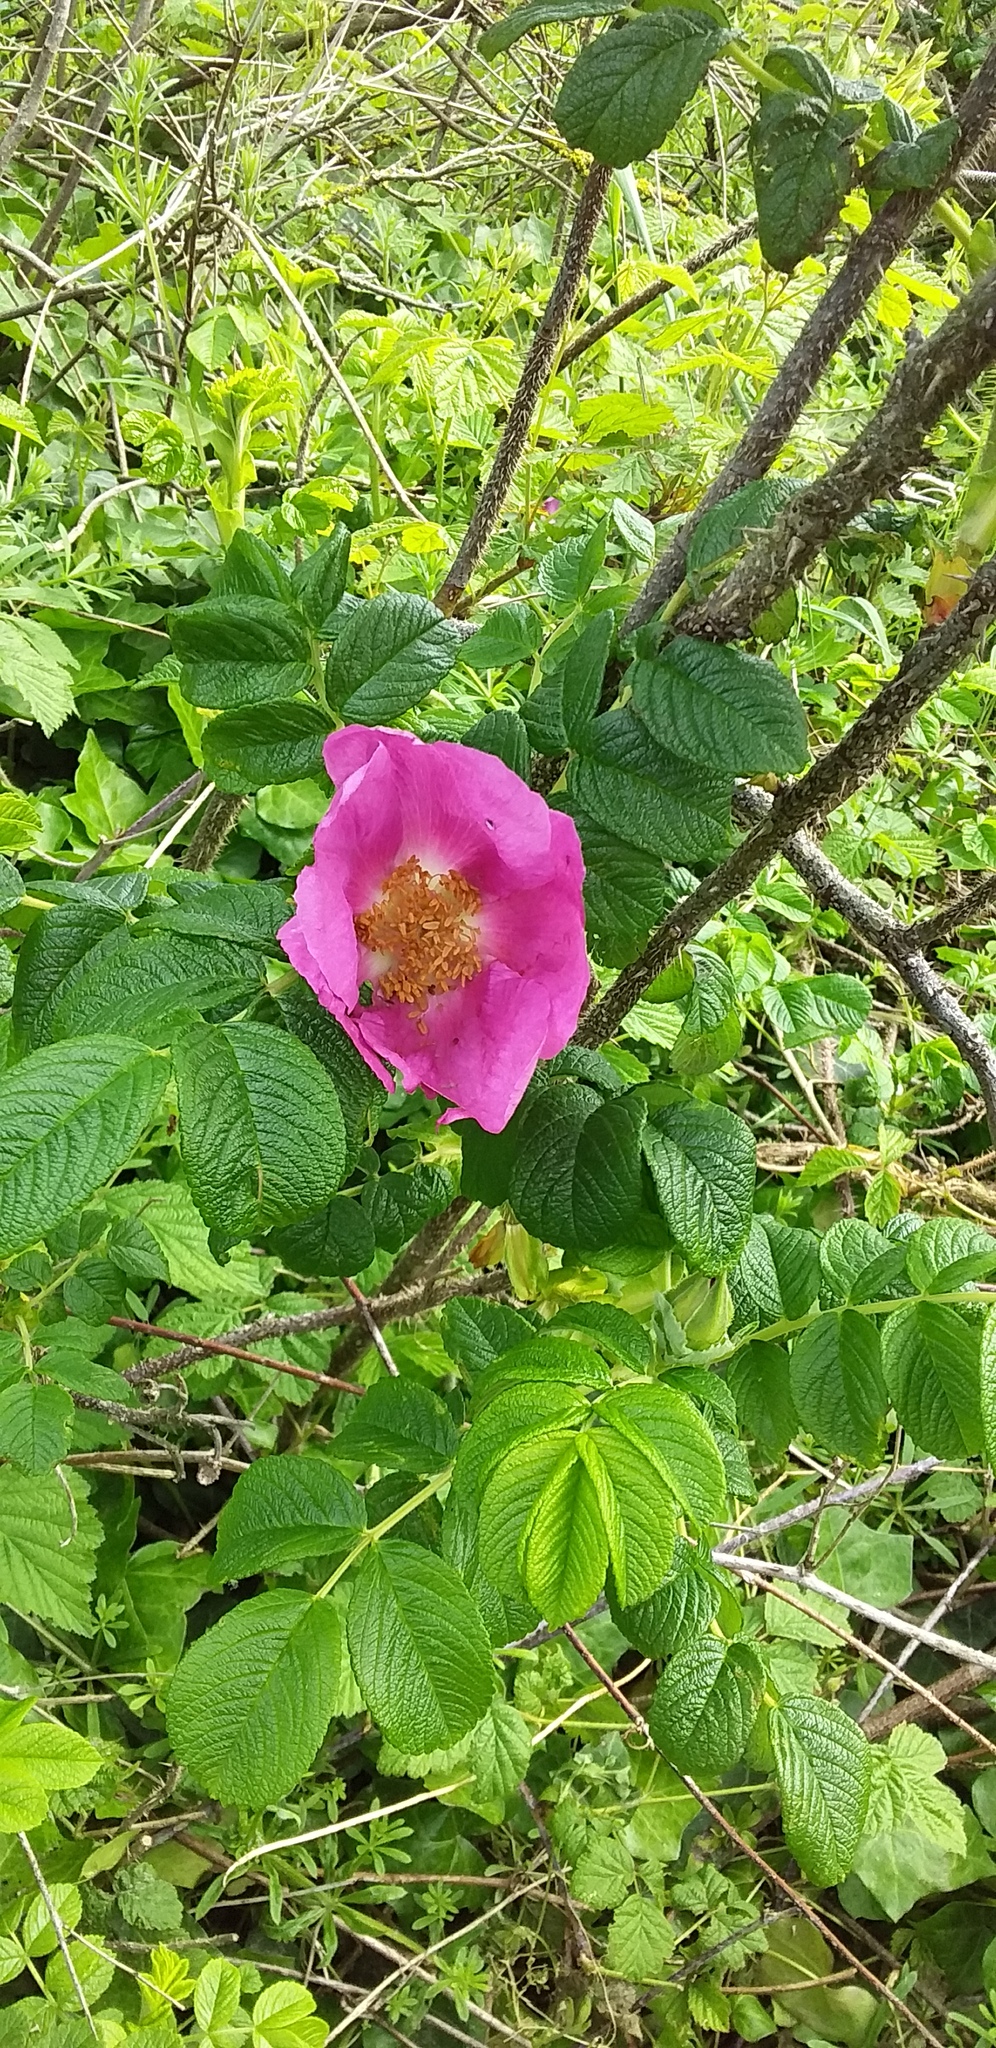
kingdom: Plantae
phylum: Tracheophyta
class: Magnoliopsida
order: Rosales
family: Rosaceae
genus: Rosa
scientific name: Rosa rugosa
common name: Japanese rose
